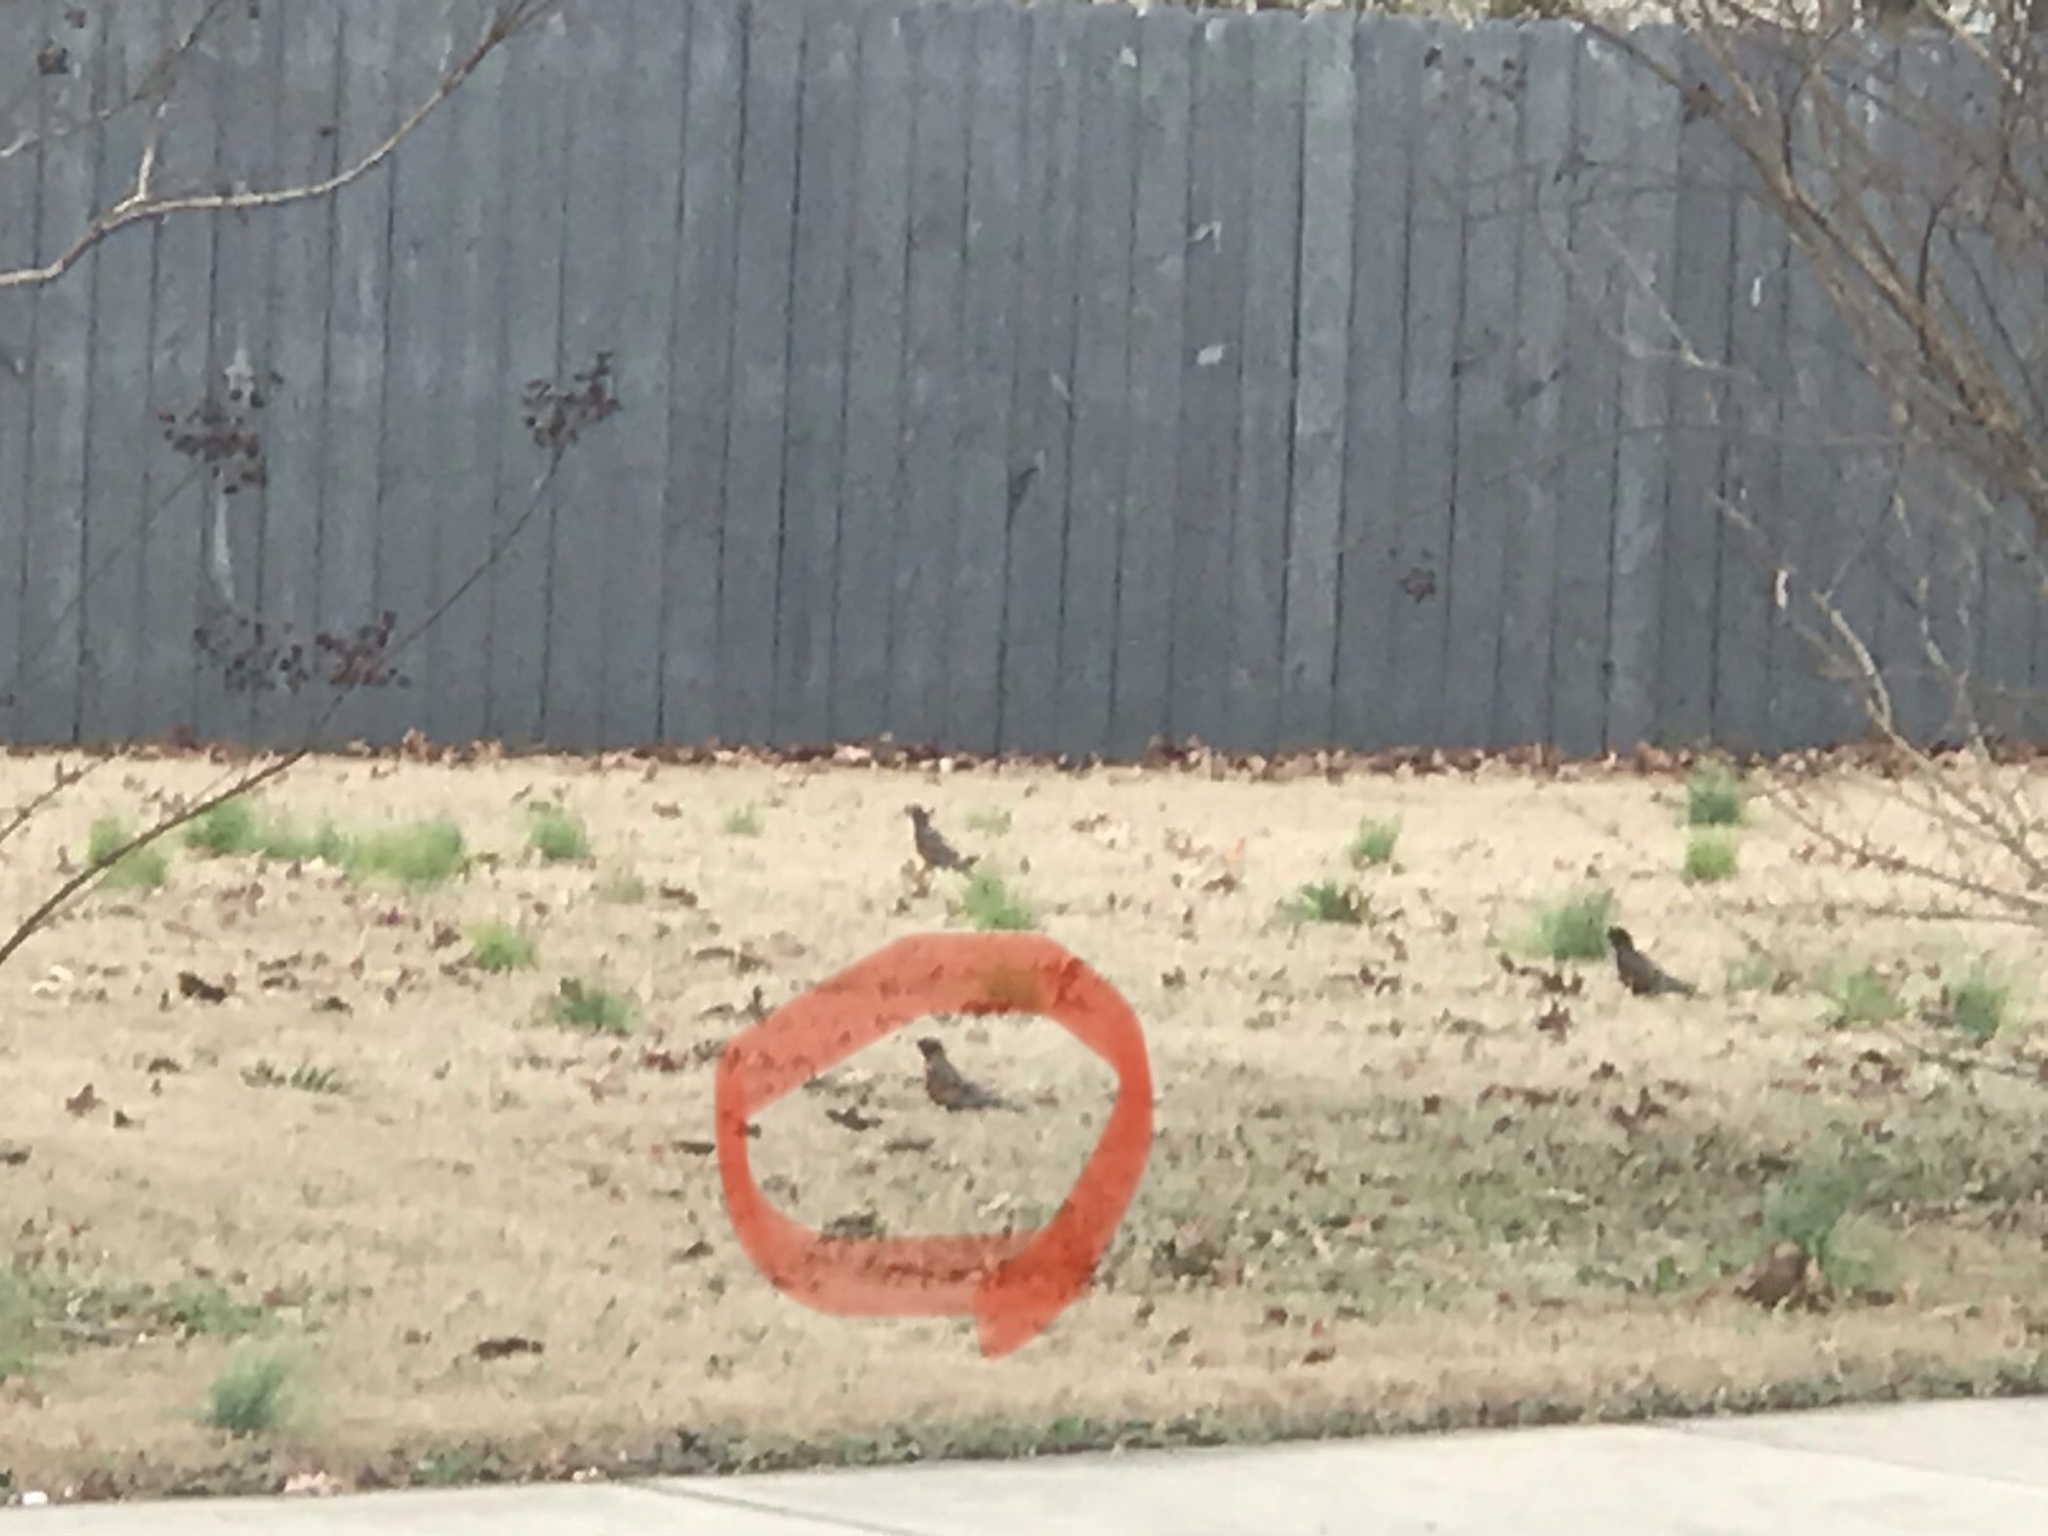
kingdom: Animalia
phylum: Chordata
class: Aves
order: Passeriformes
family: Turdidae
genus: Turdus
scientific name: Turdus migratorius
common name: American robin
